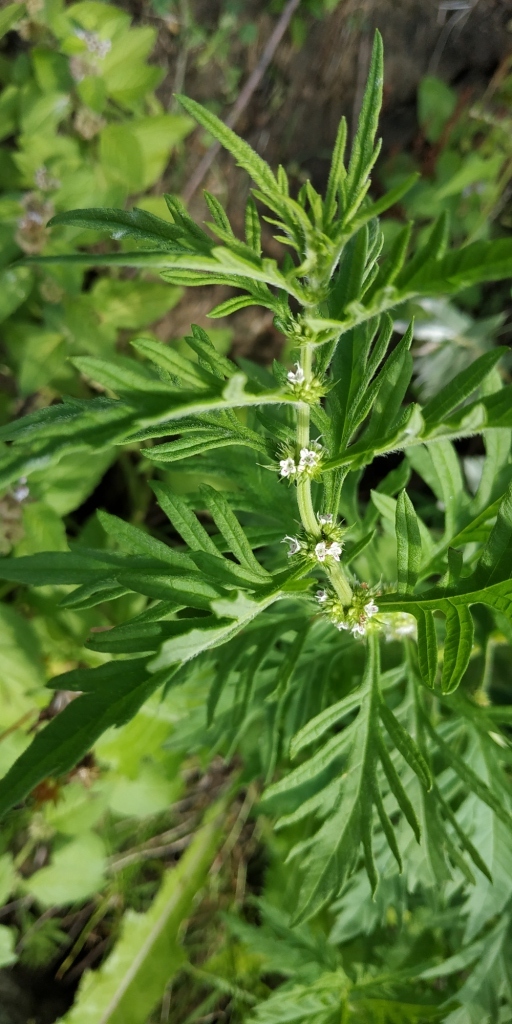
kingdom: Plantae
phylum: Tracheophyta
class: Magnoliopsida
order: Lamiales
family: Lamiaceae
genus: Lycopus
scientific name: Lycopus exaltatus
